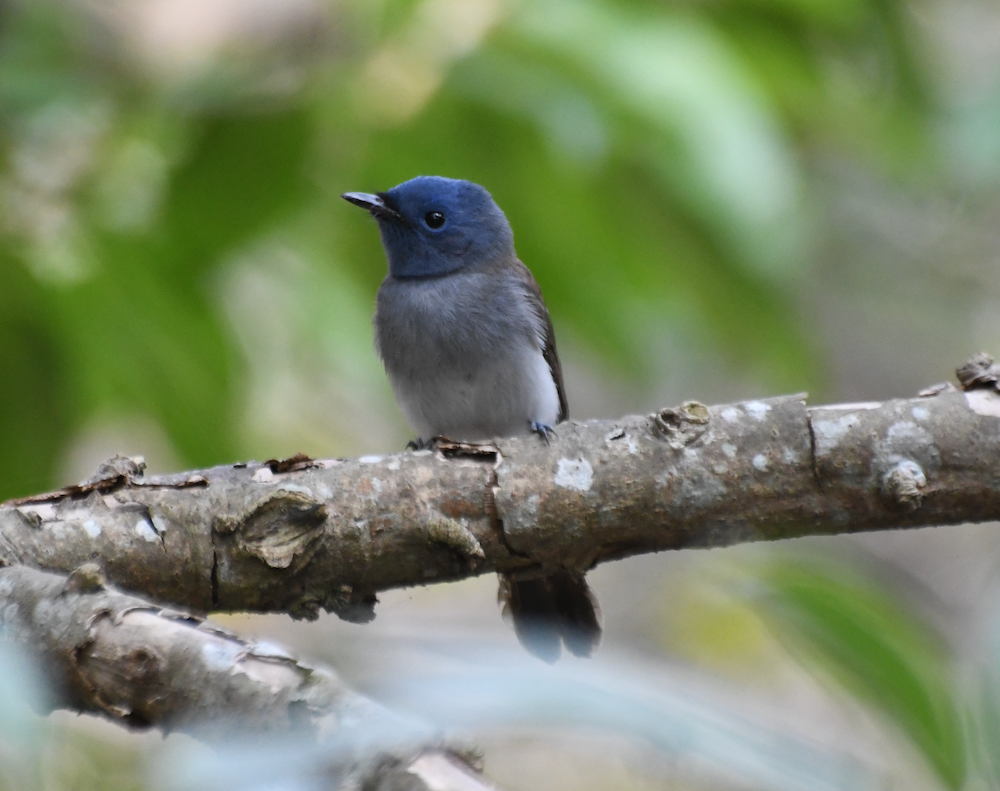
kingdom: Animalia
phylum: Chordata
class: Aves
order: Passeriformes
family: Monarchidae
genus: Hypothymis
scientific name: Hypothymis azurea
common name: Black-naped monarch
